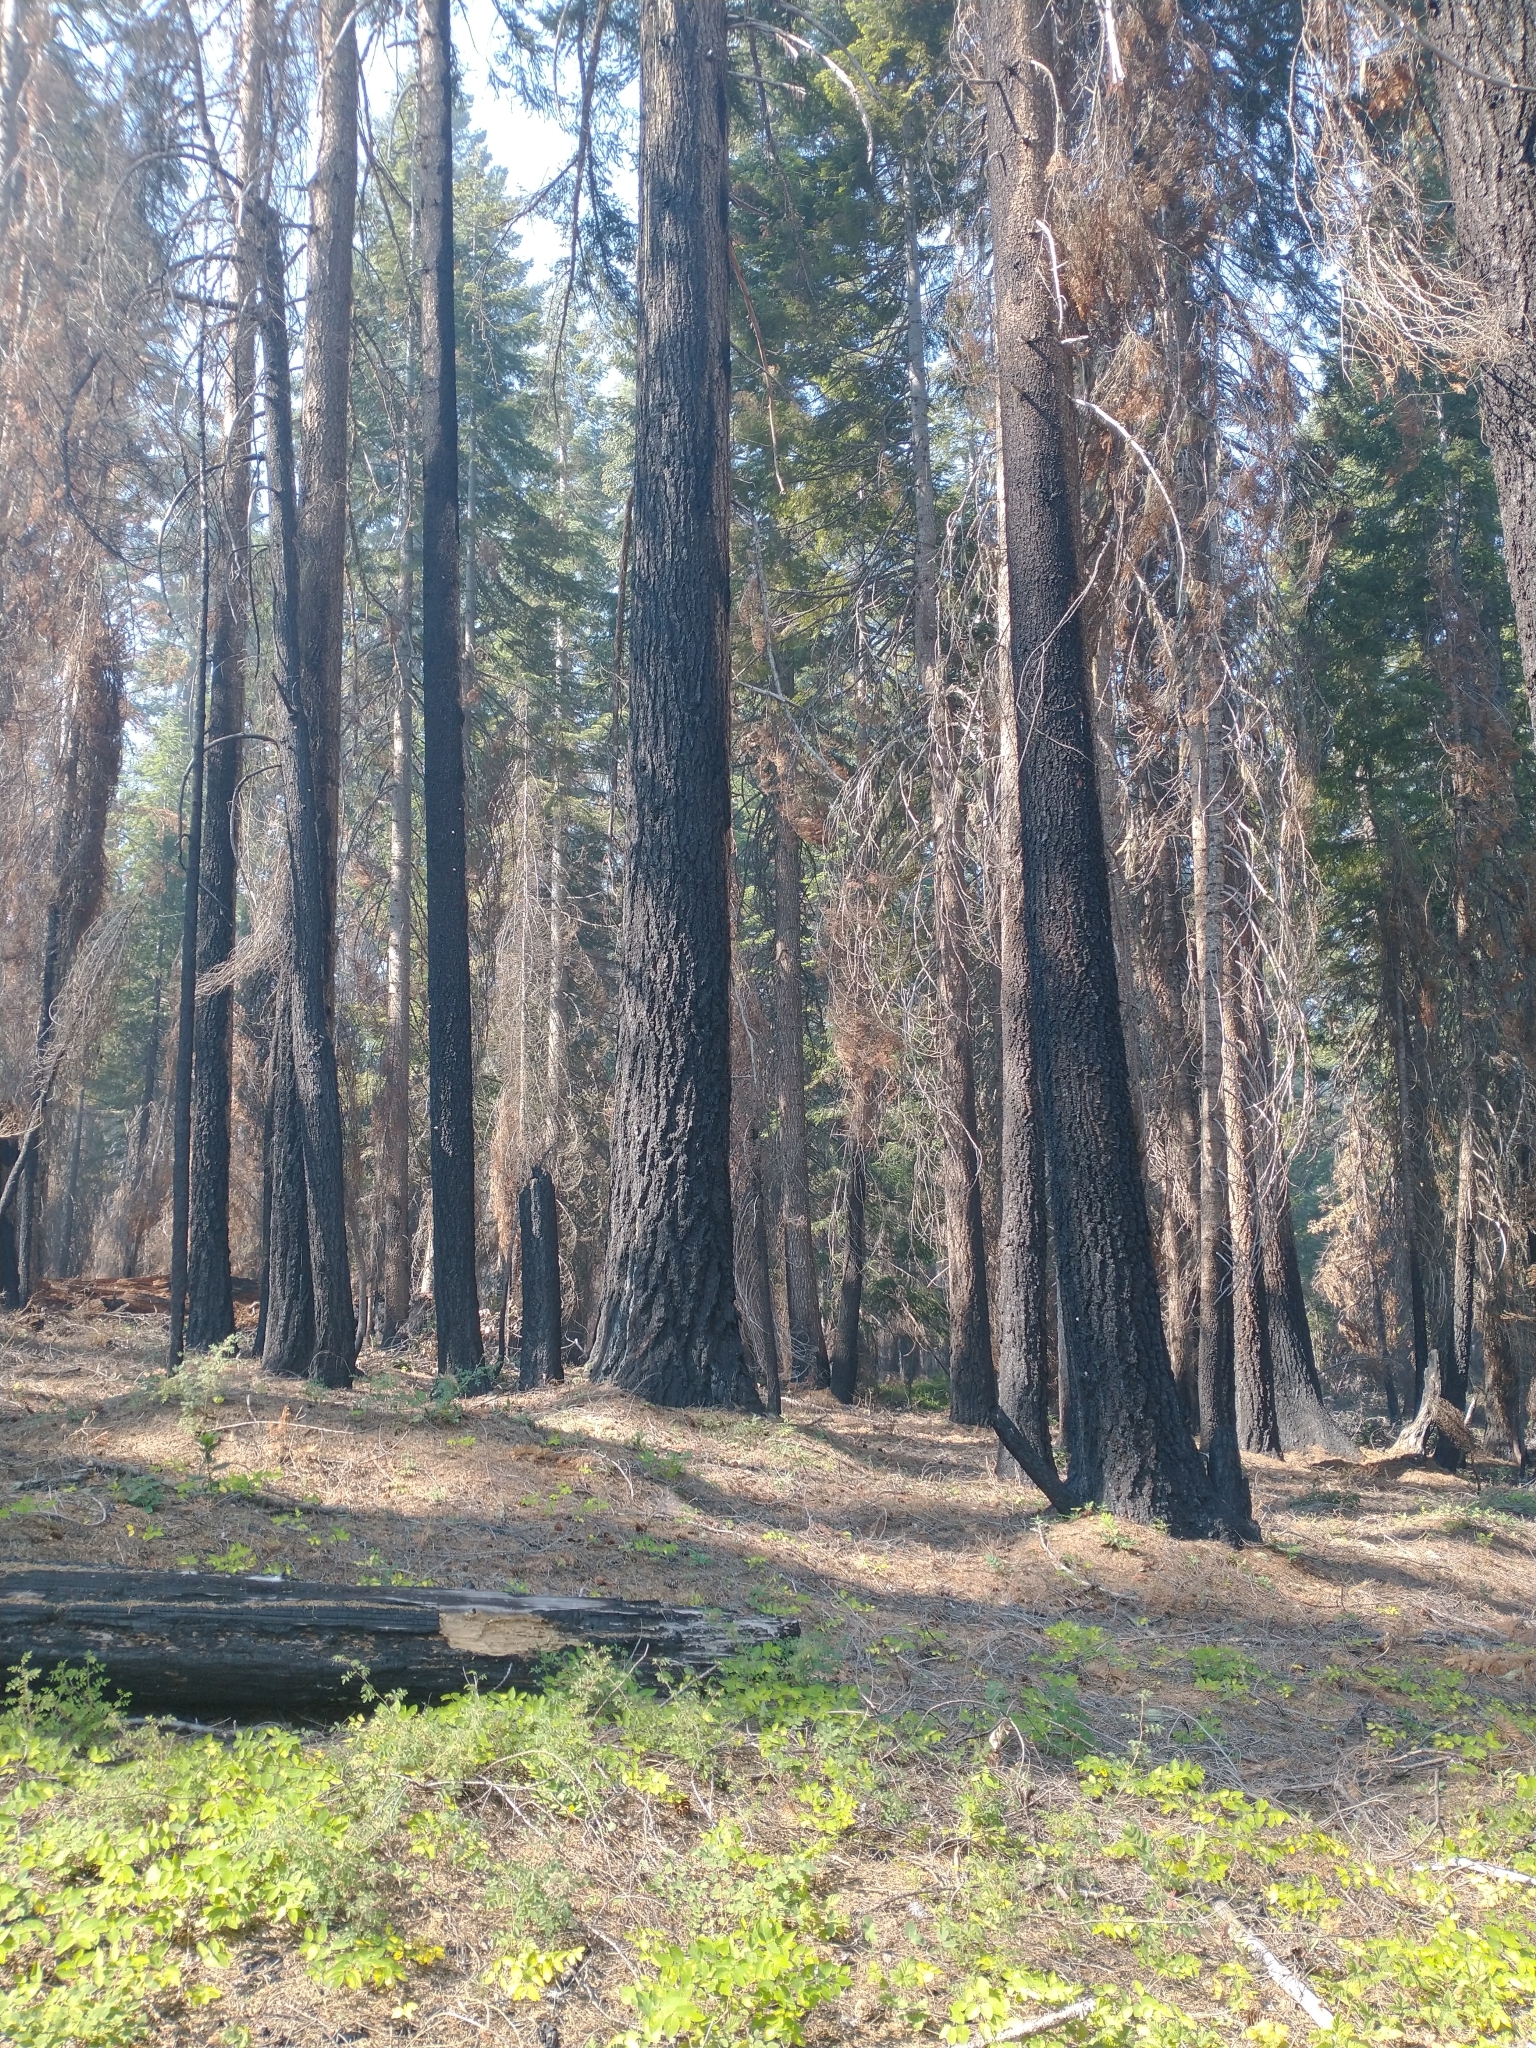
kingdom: Plantae
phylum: Tracheophyta
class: Pinopsida
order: Pinales
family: Pinaceae
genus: Pseudotsuga
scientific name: Pseudotsuga menziesii
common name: Douglas fir
